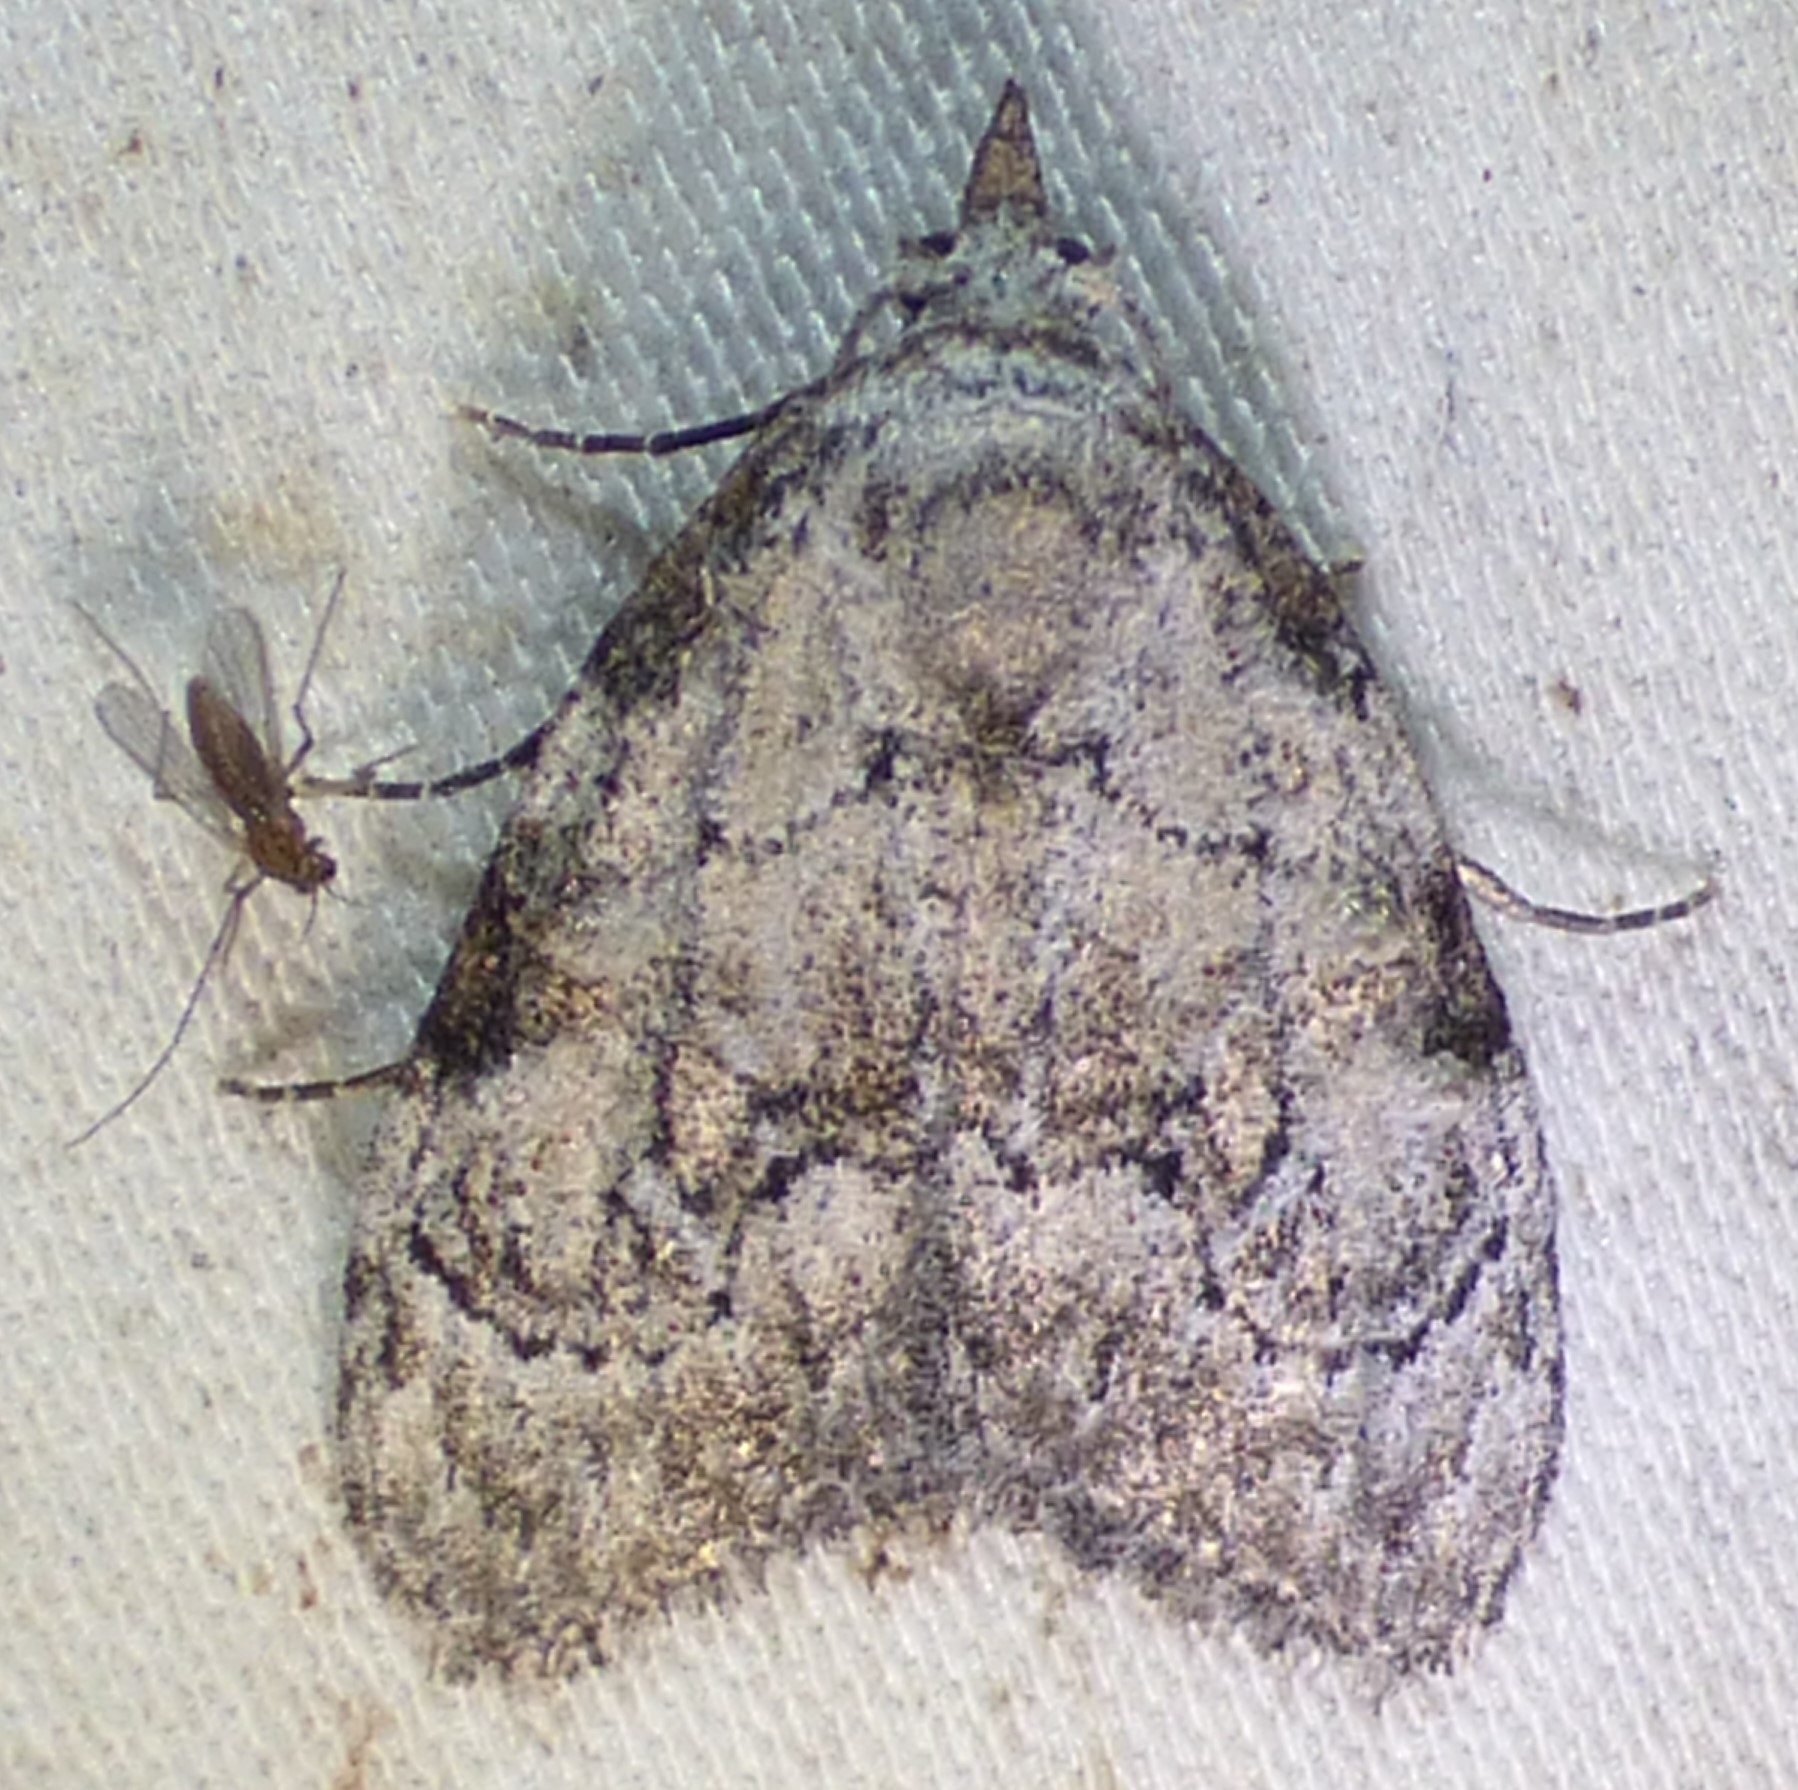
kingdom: Animalia
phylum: Arthropoda
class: Insecta
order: Lepidoptera
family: Nolidae
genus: Meganola
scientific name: Meganola minuscula
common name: Confused meganola moth
